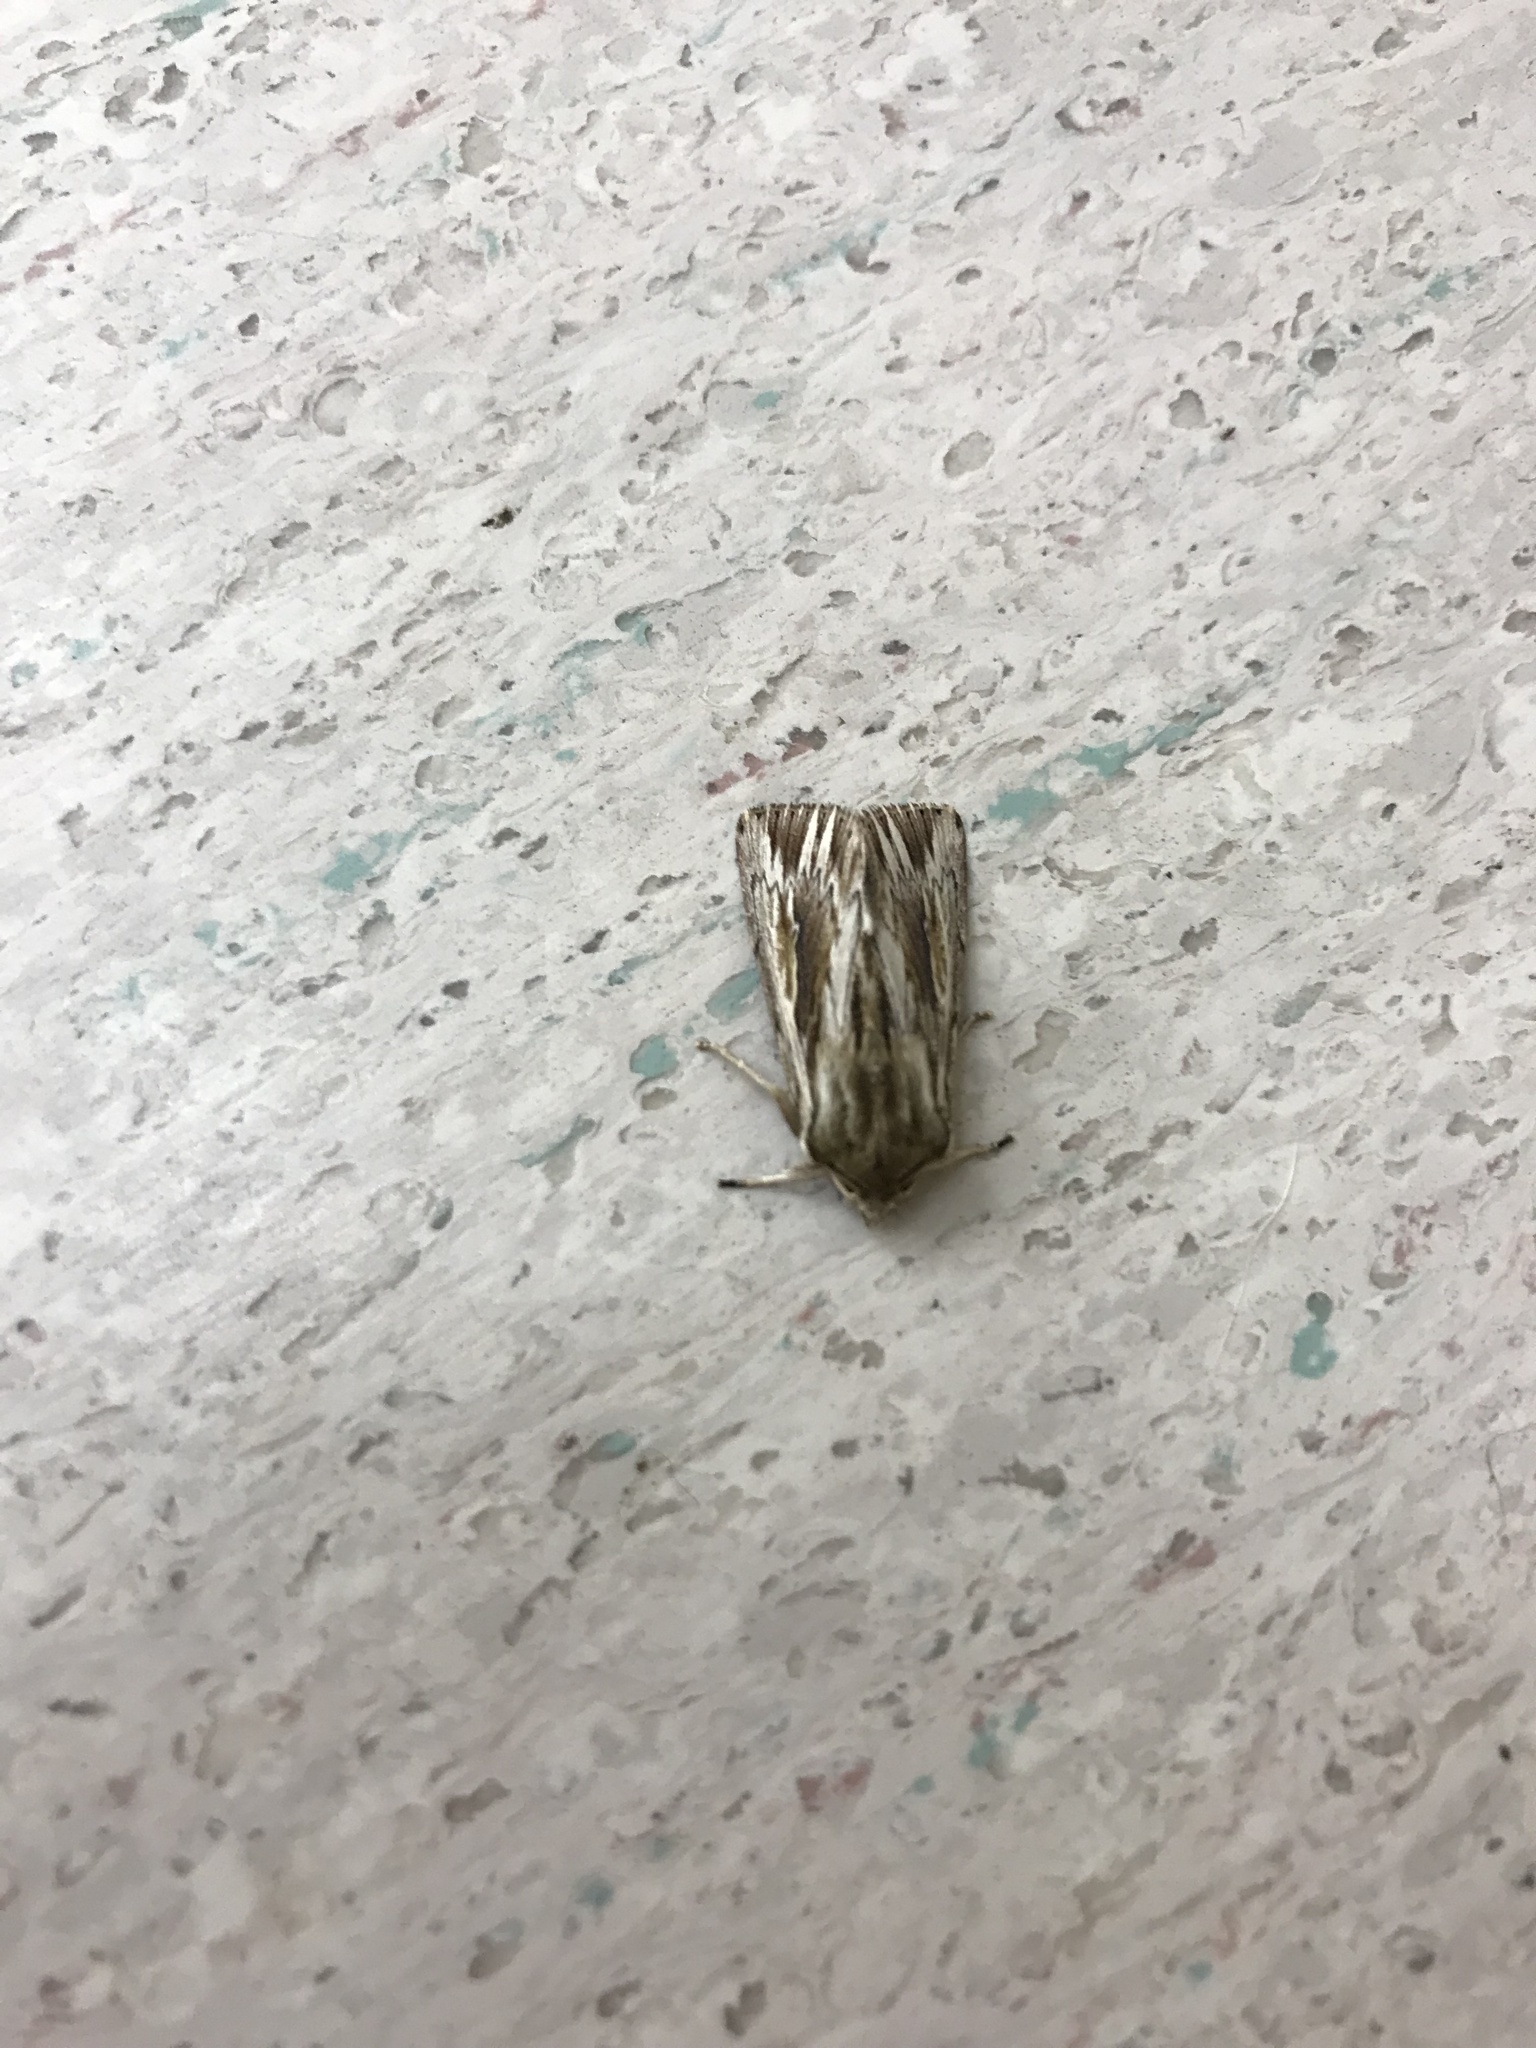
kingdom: Animalia
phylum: Arthropoda
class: Insecta
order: Lepidoptera
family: Noctuidae
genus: Persectania
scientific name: Persectania aversa
